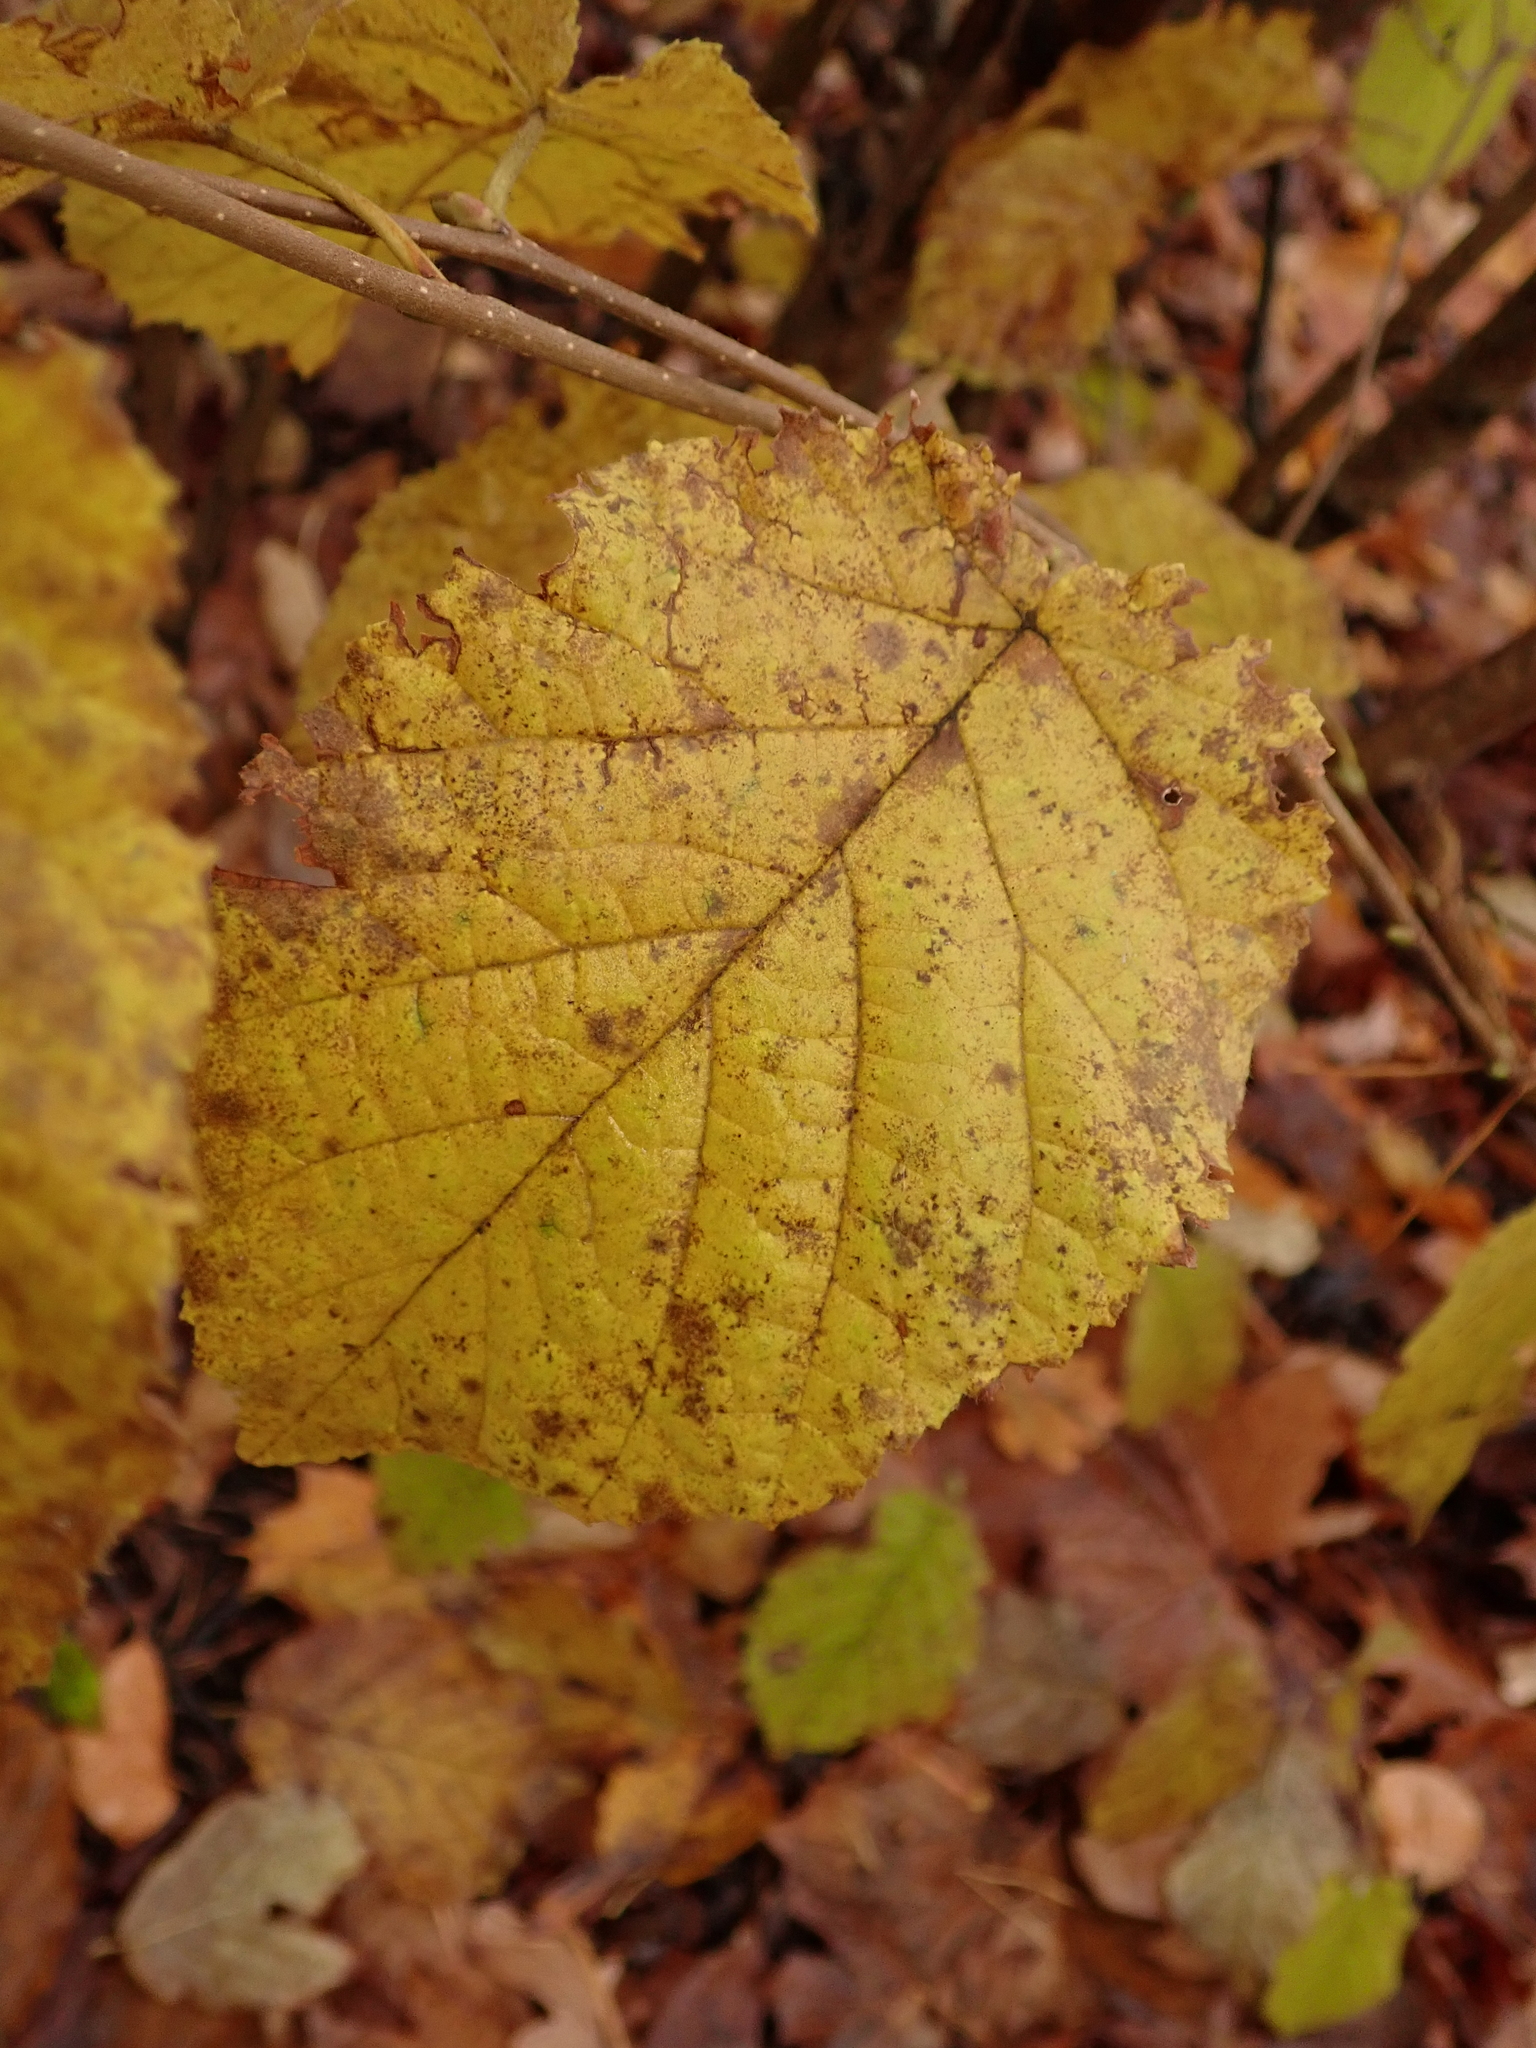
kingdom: Plantae
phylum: Tracheophyta
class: Magnoliopsida
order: Fagales
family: Betulaceae
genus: Corylus
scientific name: Corylus avellana
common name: European hazel
